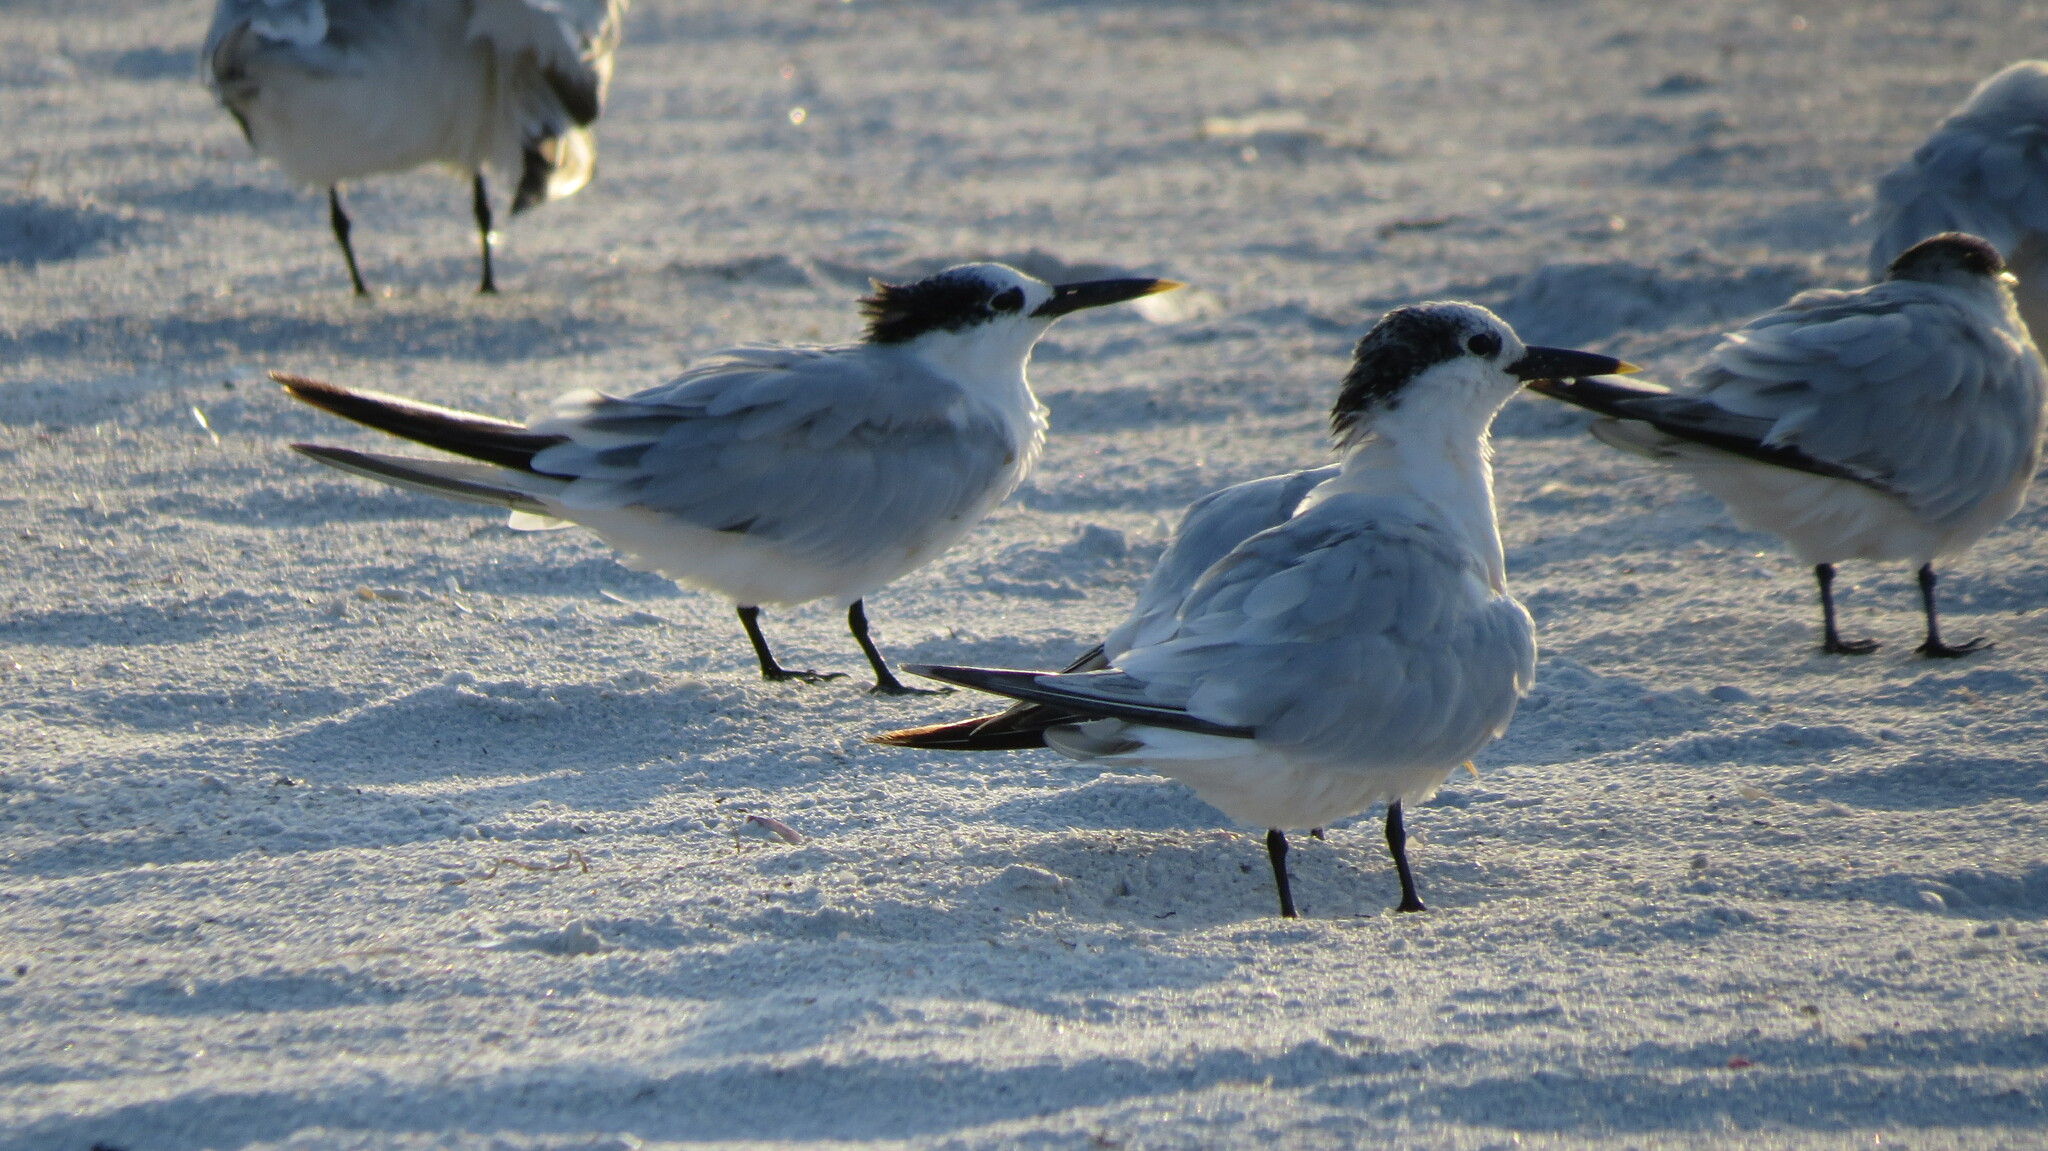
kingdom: Animalia
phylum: Chordata
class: Aves
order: Charadriiformes
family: Laridae
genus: Thalasseus
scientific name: Thalasseus sandvicensis
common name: Sandwich tern
